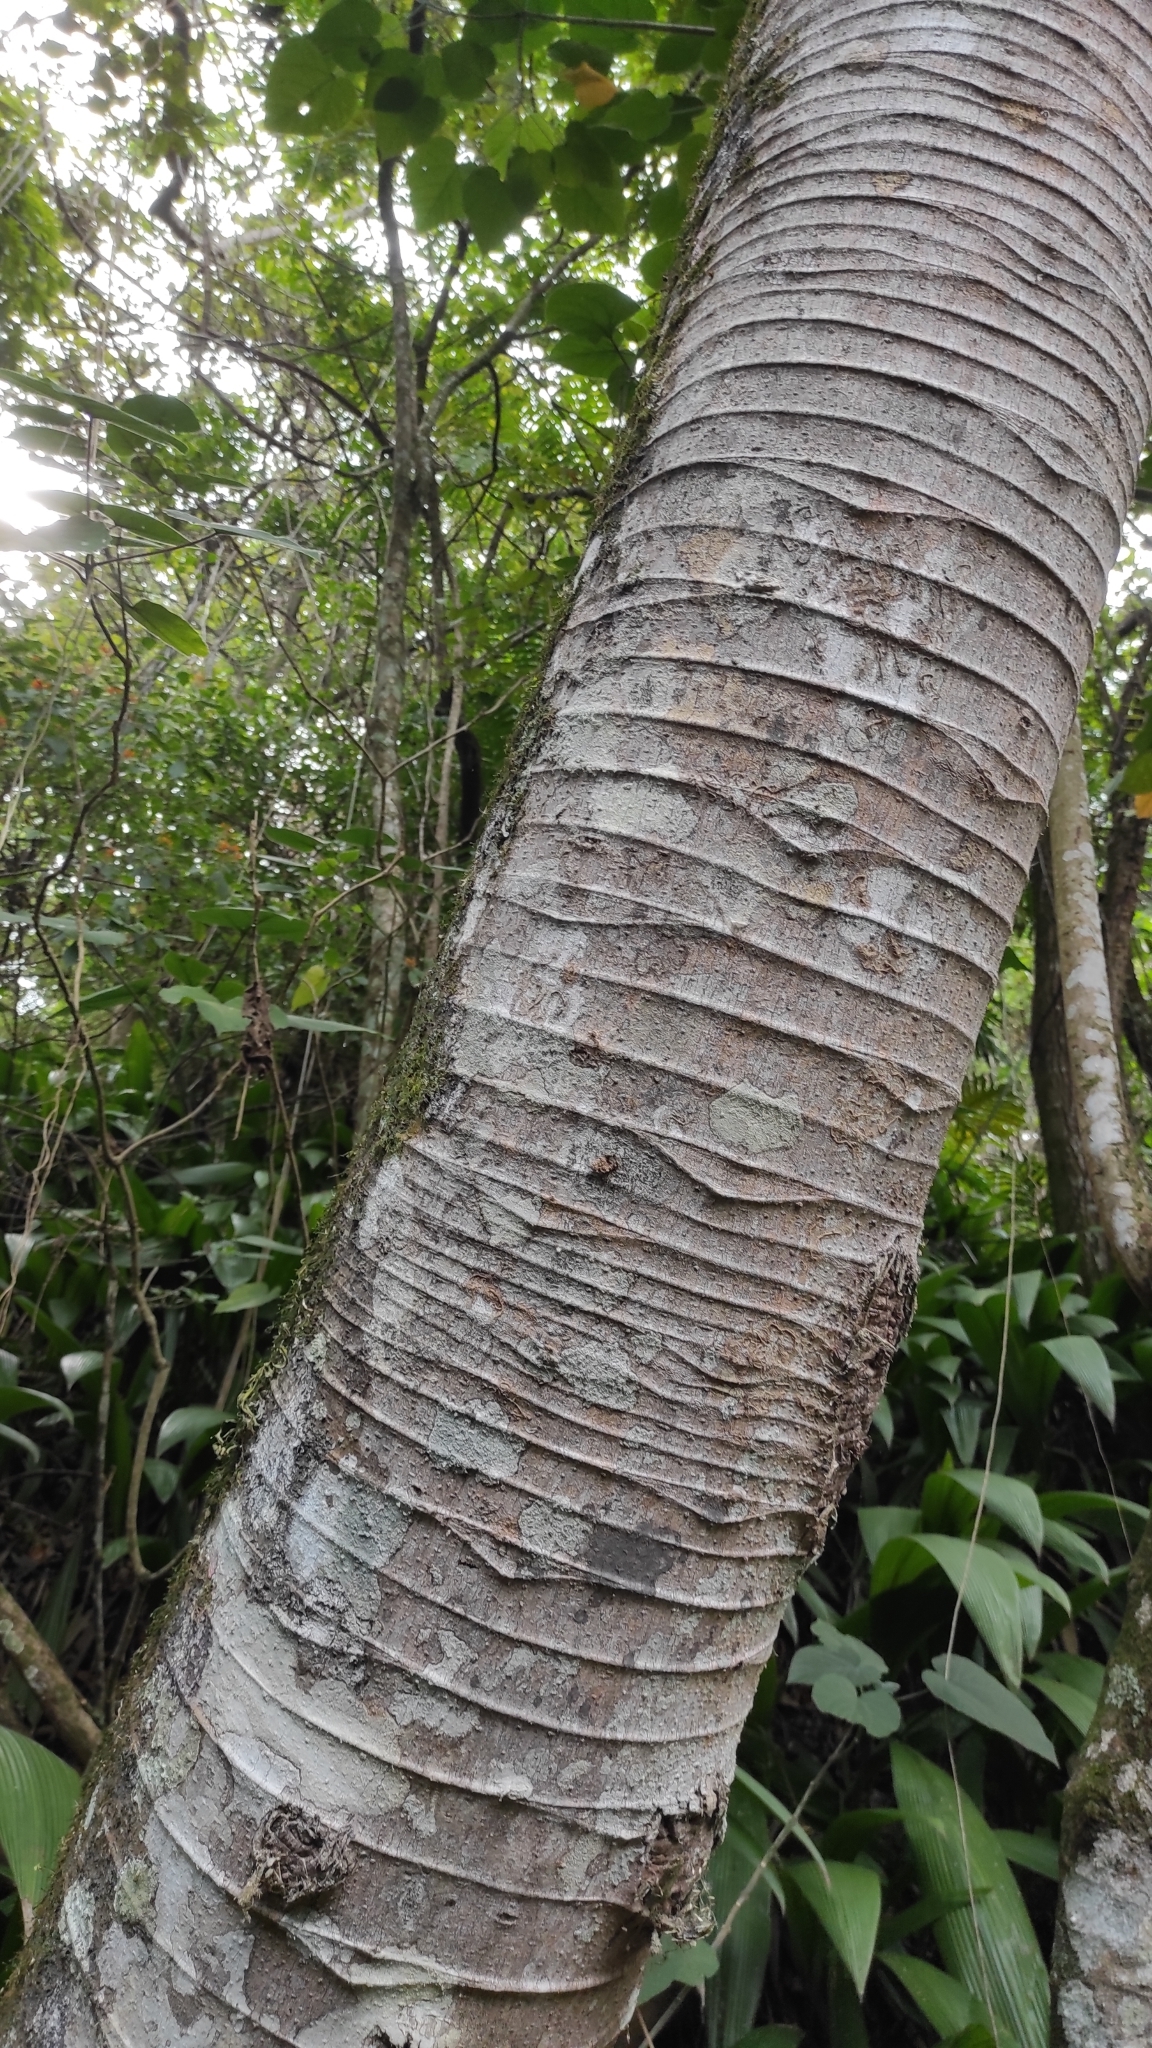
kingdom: Plantae
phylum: Tracheophyta
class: Magnoliopsida
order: Rosales
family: Urticaceae
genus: Cecropia
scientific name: Cecropia obtusifolia
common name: Trumpet tree
